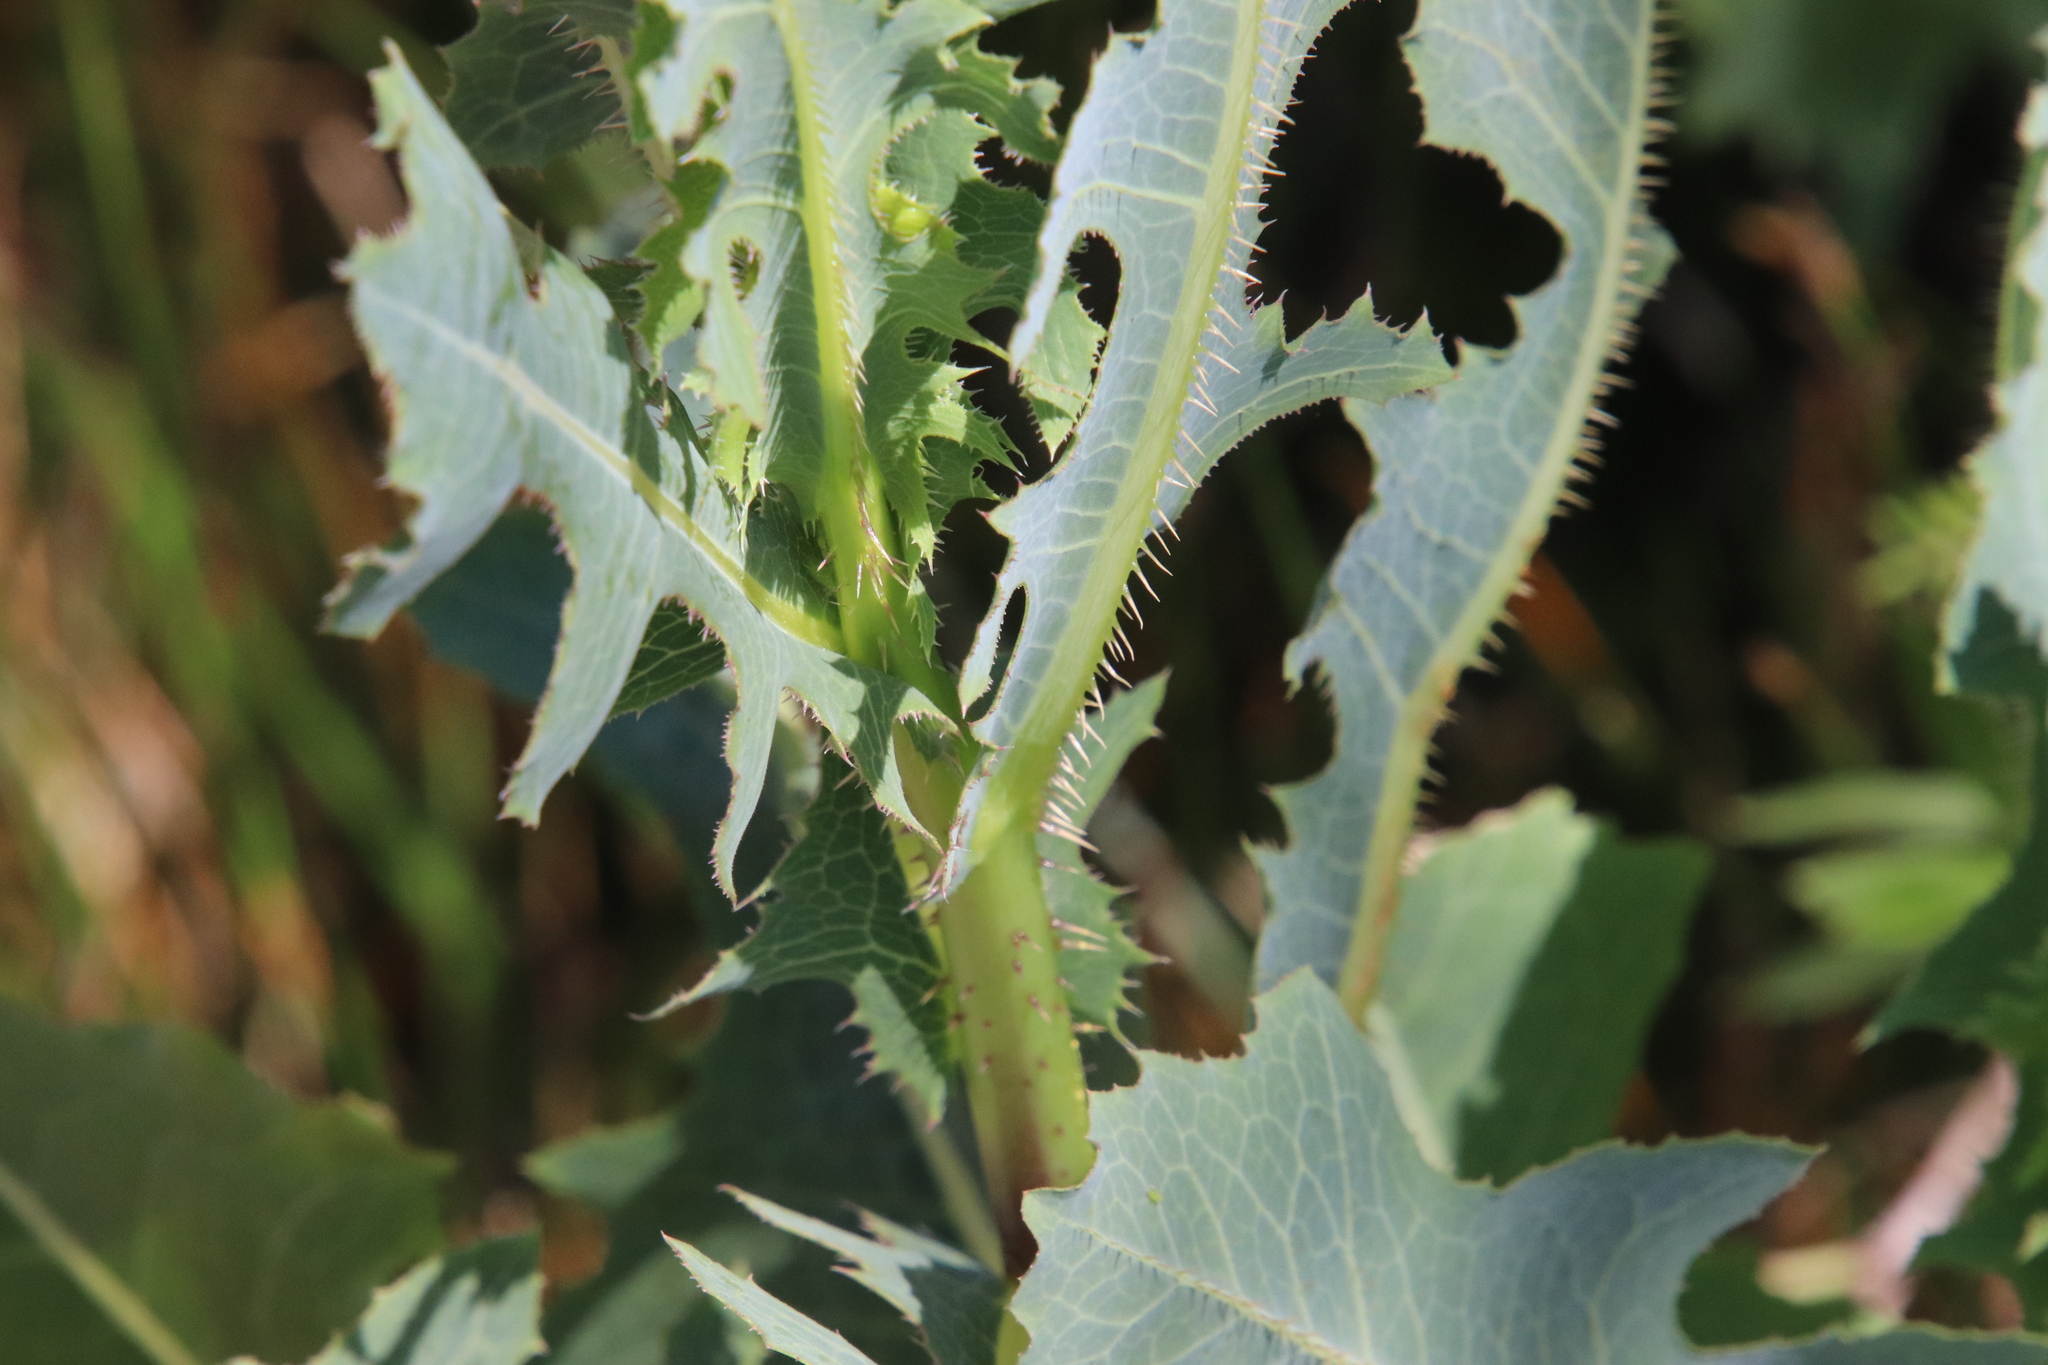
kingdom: Plantae
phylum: Tracheophyta
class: Magnoliopsida
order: Asterales
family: Asteraceae
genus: Lactuca
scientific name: Lactuca serriola
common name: Prickly lettuce
